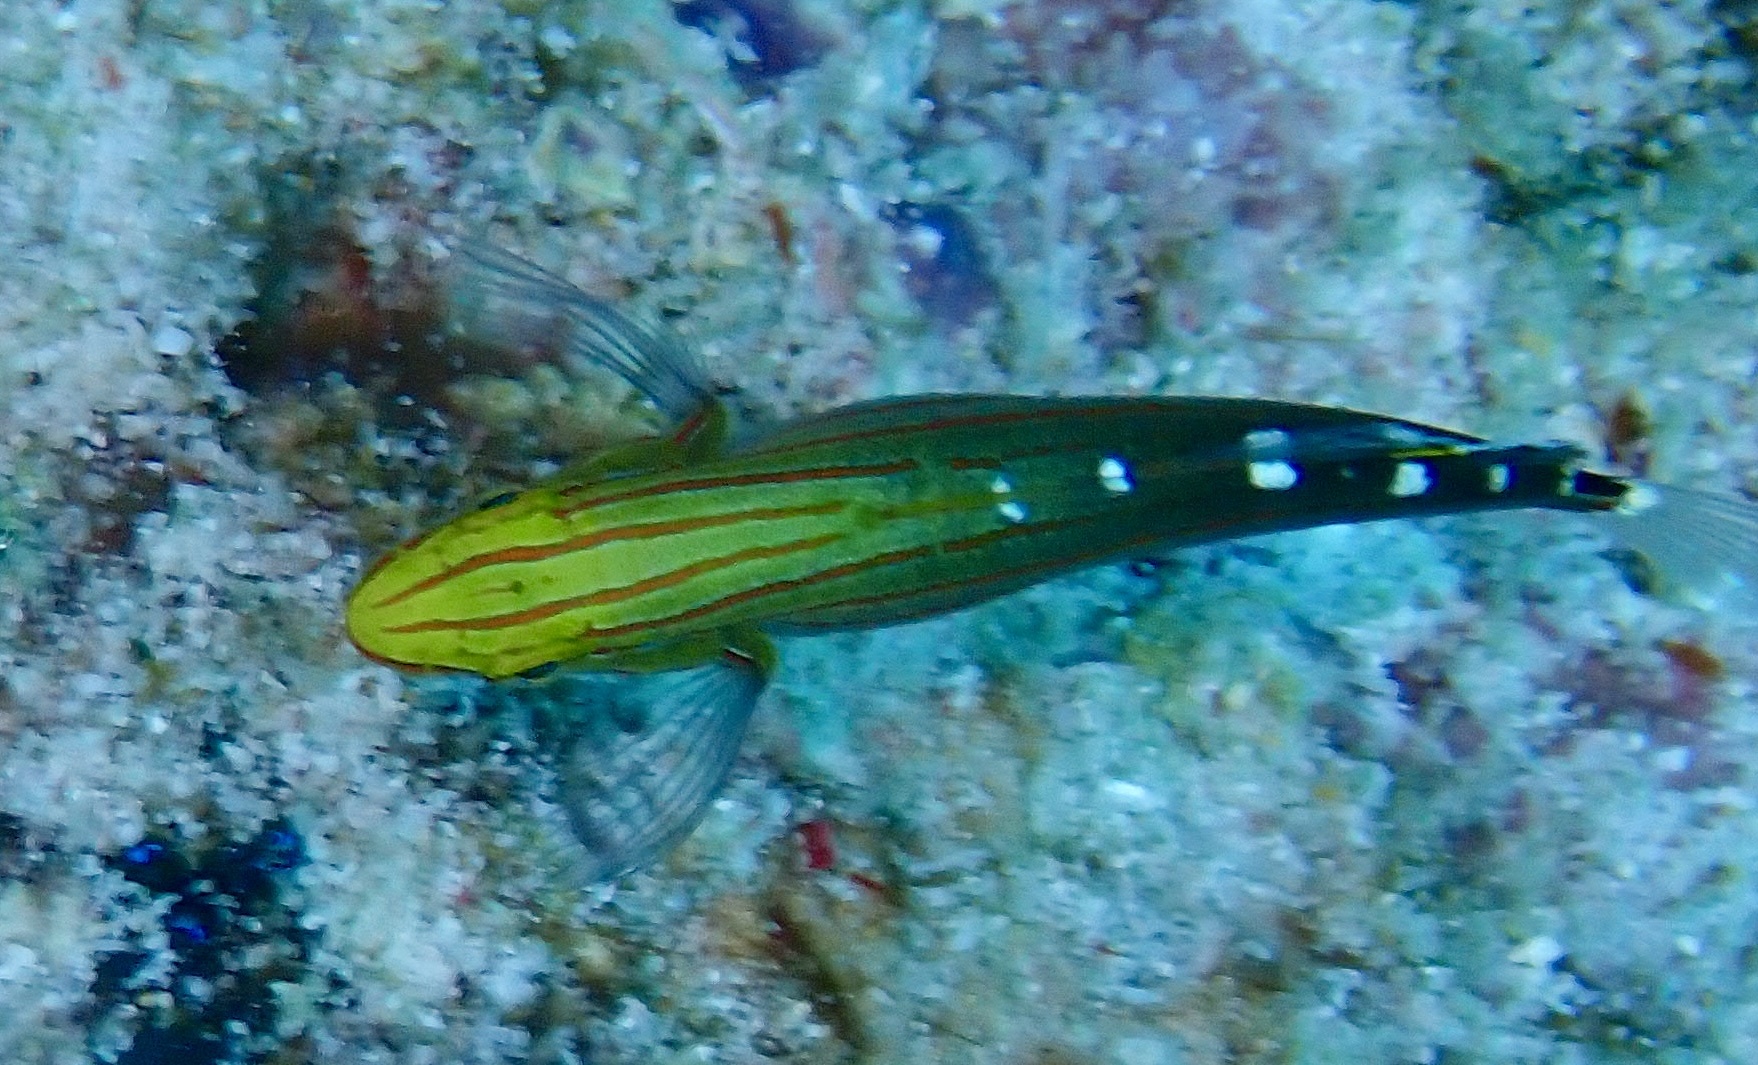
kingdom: Animalia
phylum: Chordata
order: Perciformes
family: Gobiidae
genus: Koumansetta
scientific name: Koumansetta rainfordi
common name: Old glory
